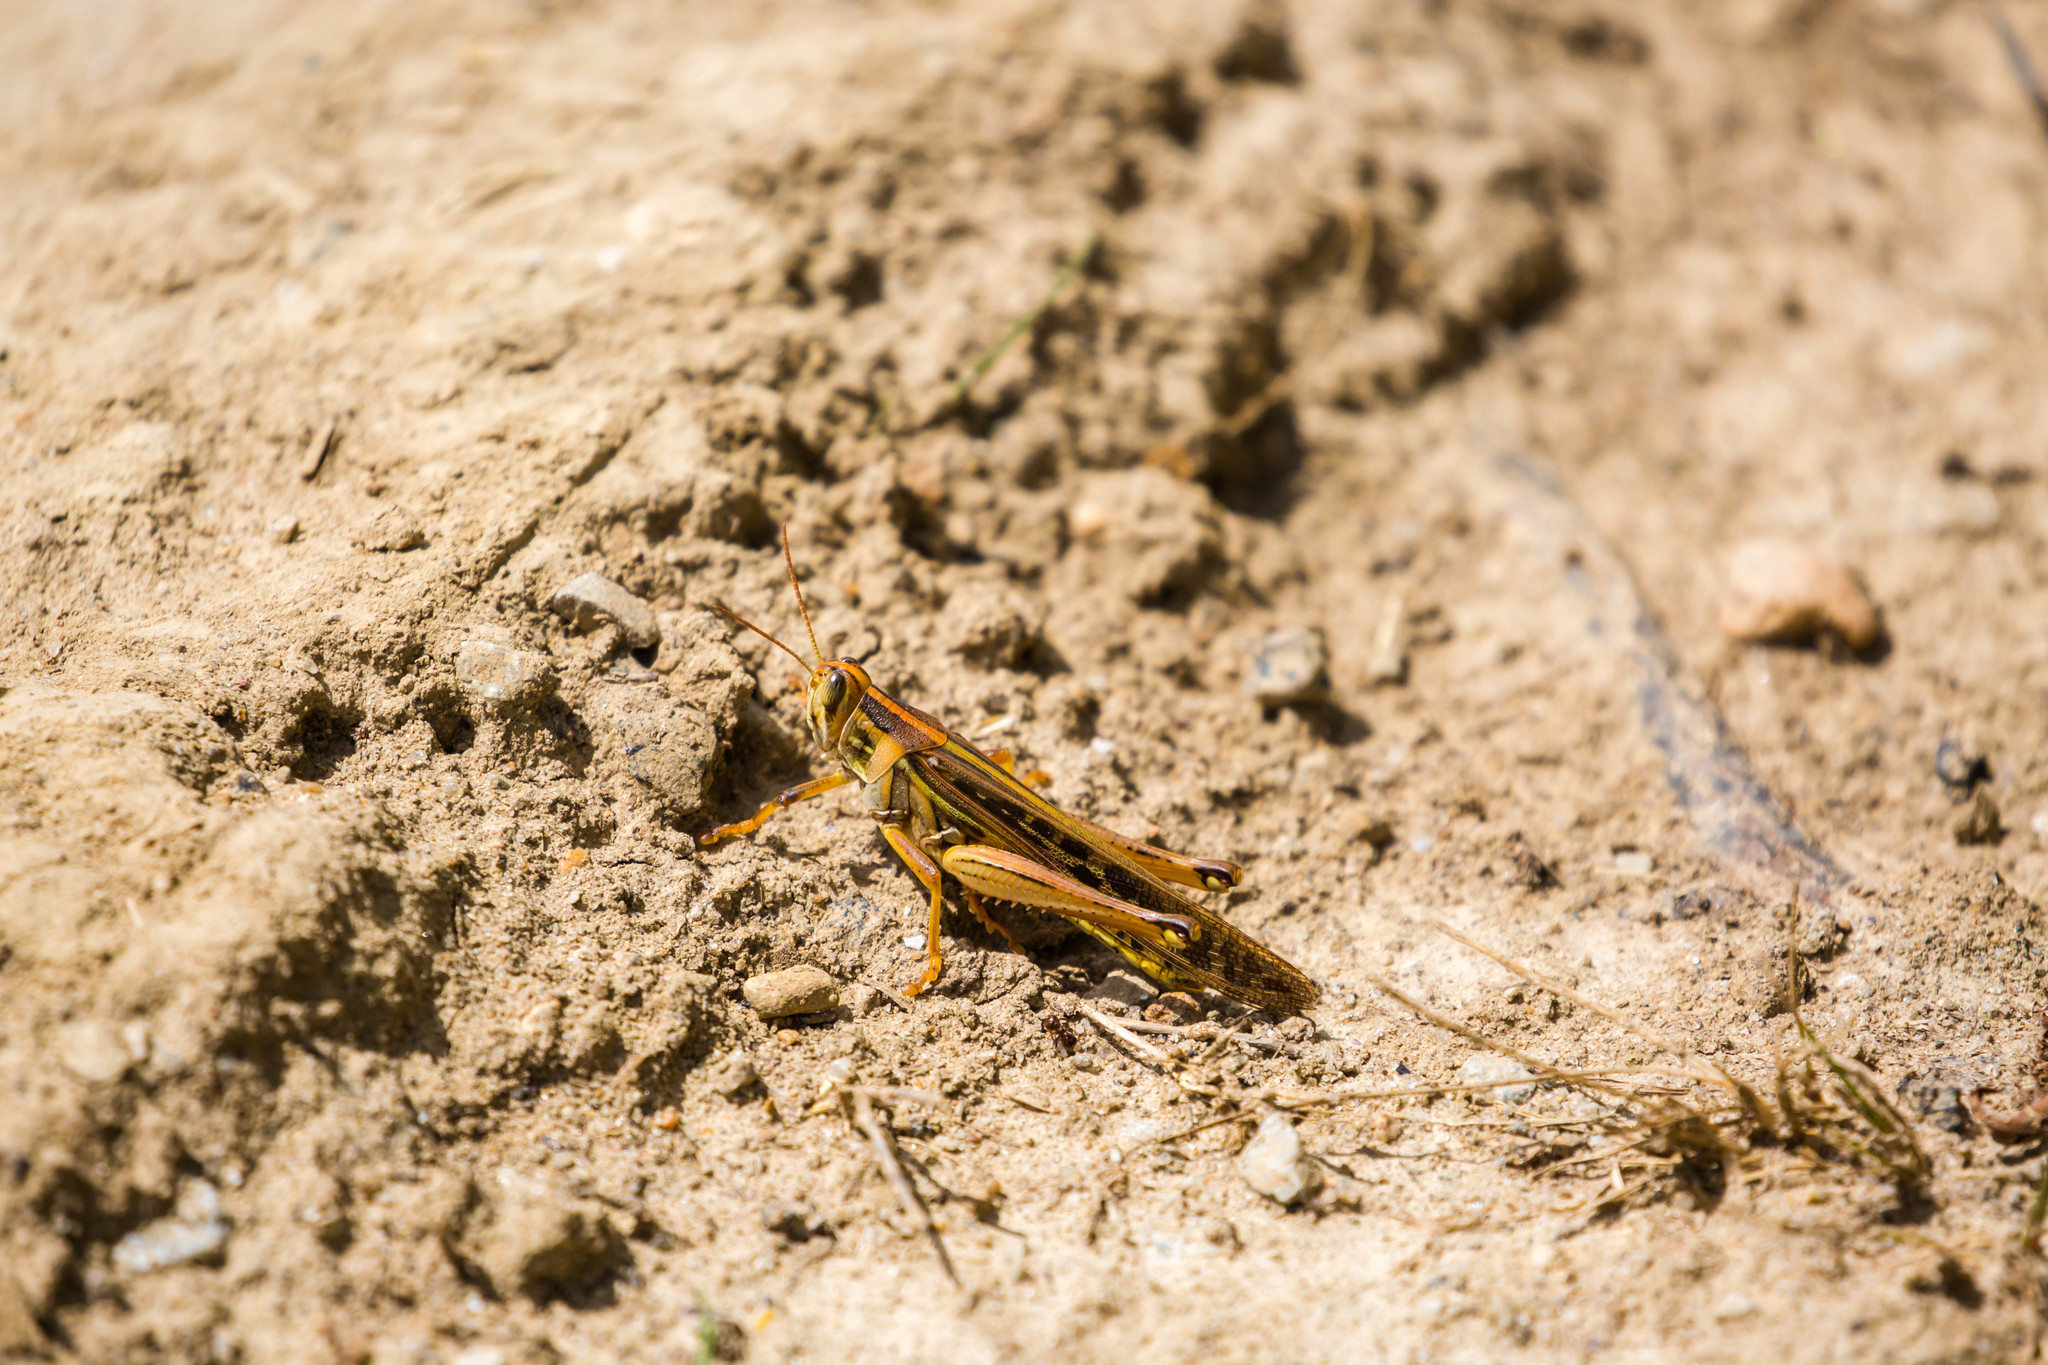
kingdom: Animalia
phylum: Arthropoda
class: Insecta
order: Orthoptera
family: Acrididae
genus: Schistocerca
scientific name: Schistocerca americana
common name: American bird locust
